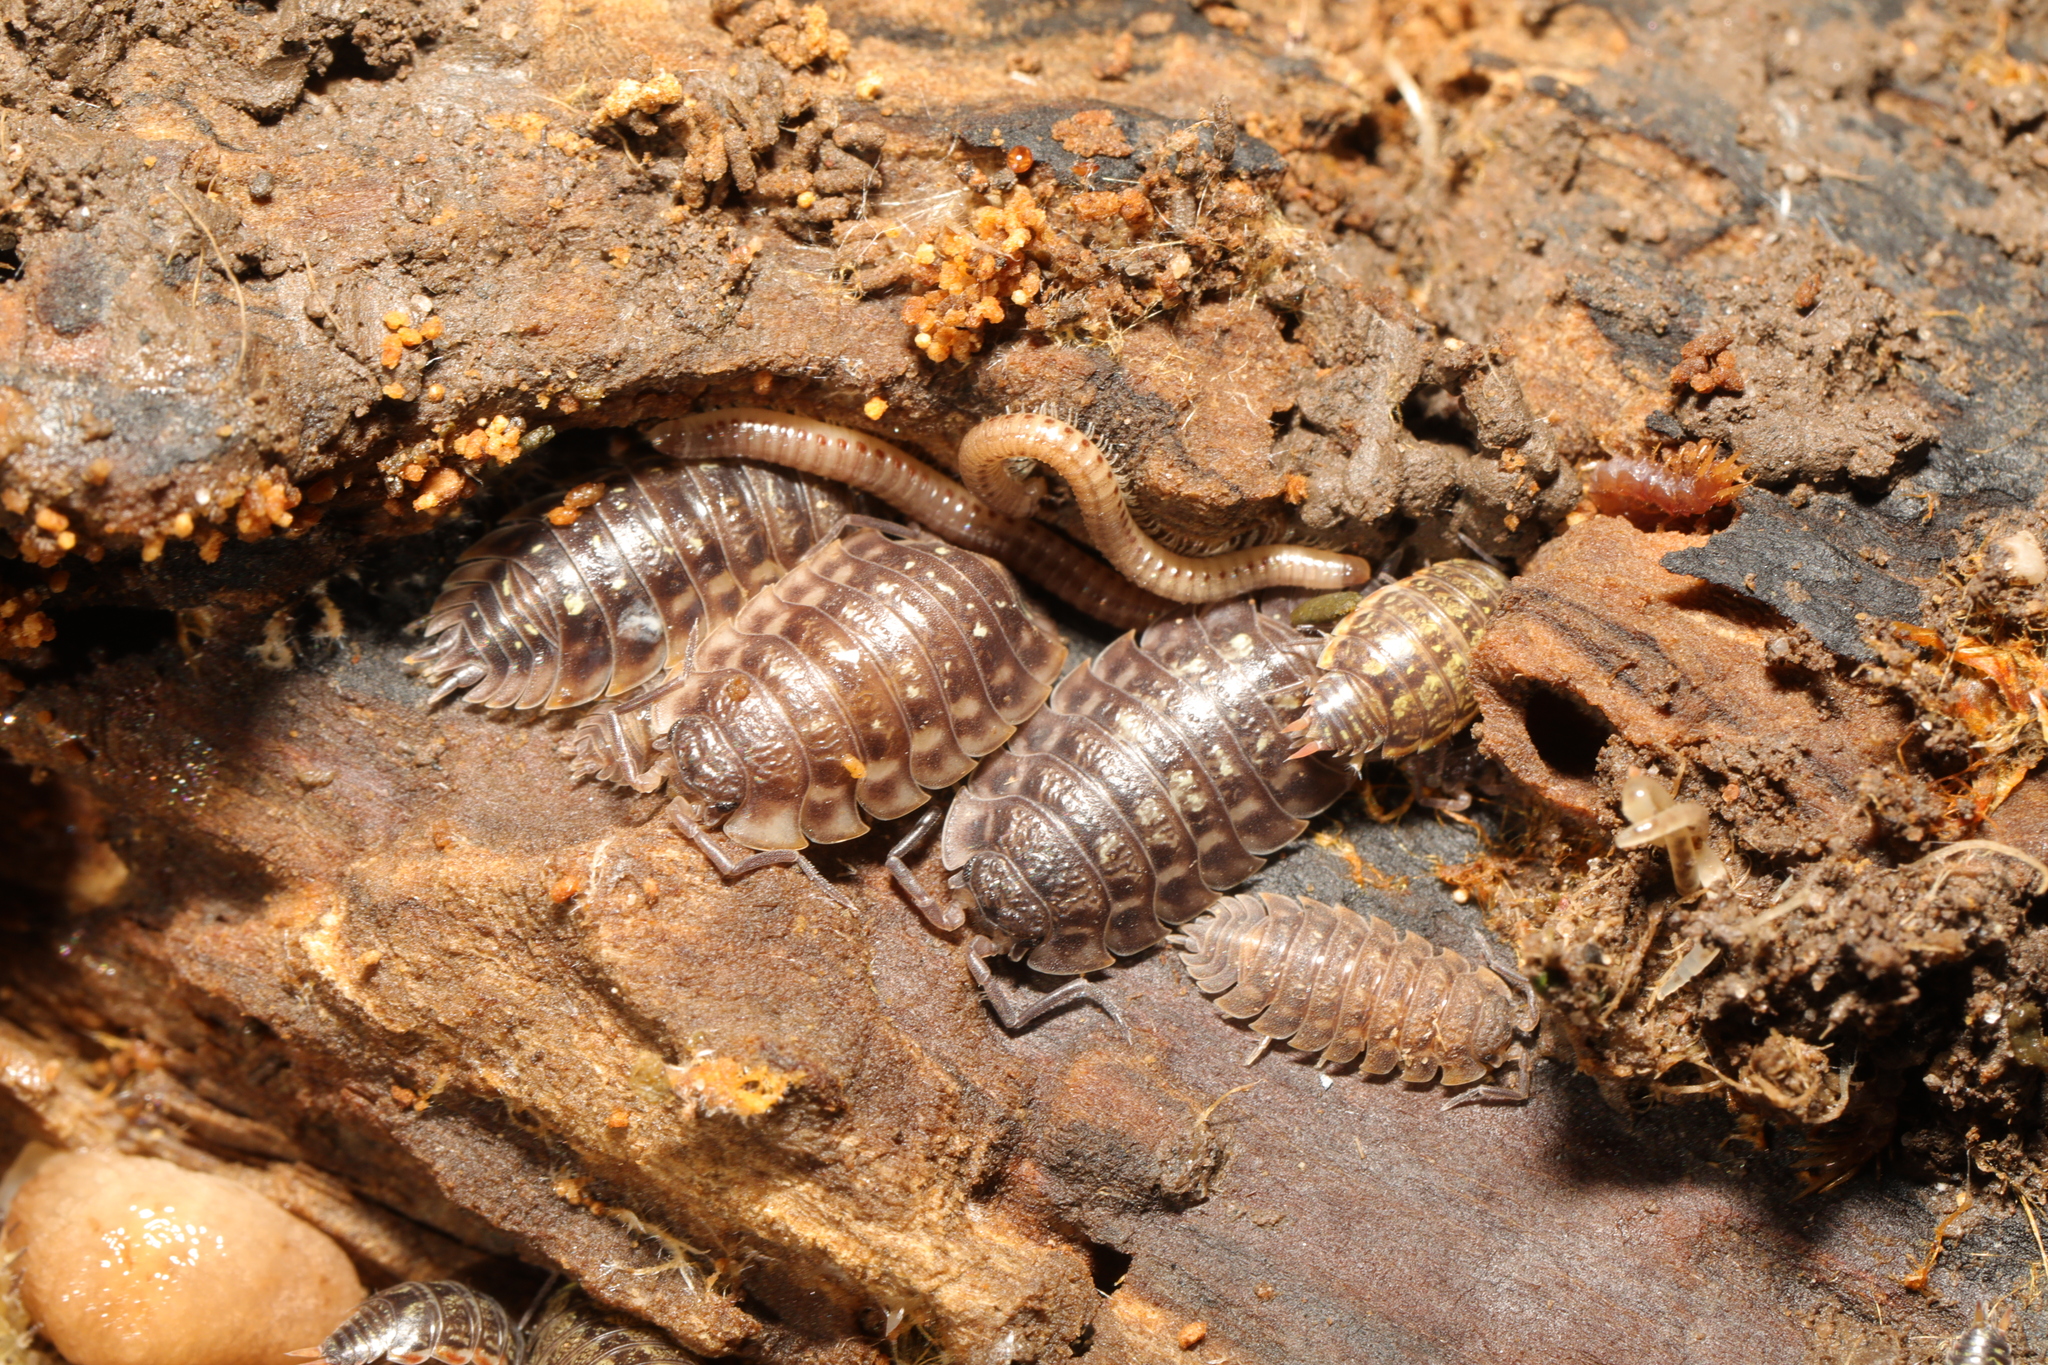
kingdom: Animalia
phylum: Arthropoda
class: Malacostraca
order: Isopoda
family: Philosciidae
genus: Philoscia
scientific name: Philoscia muscorum
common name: Common striped woodlouse
